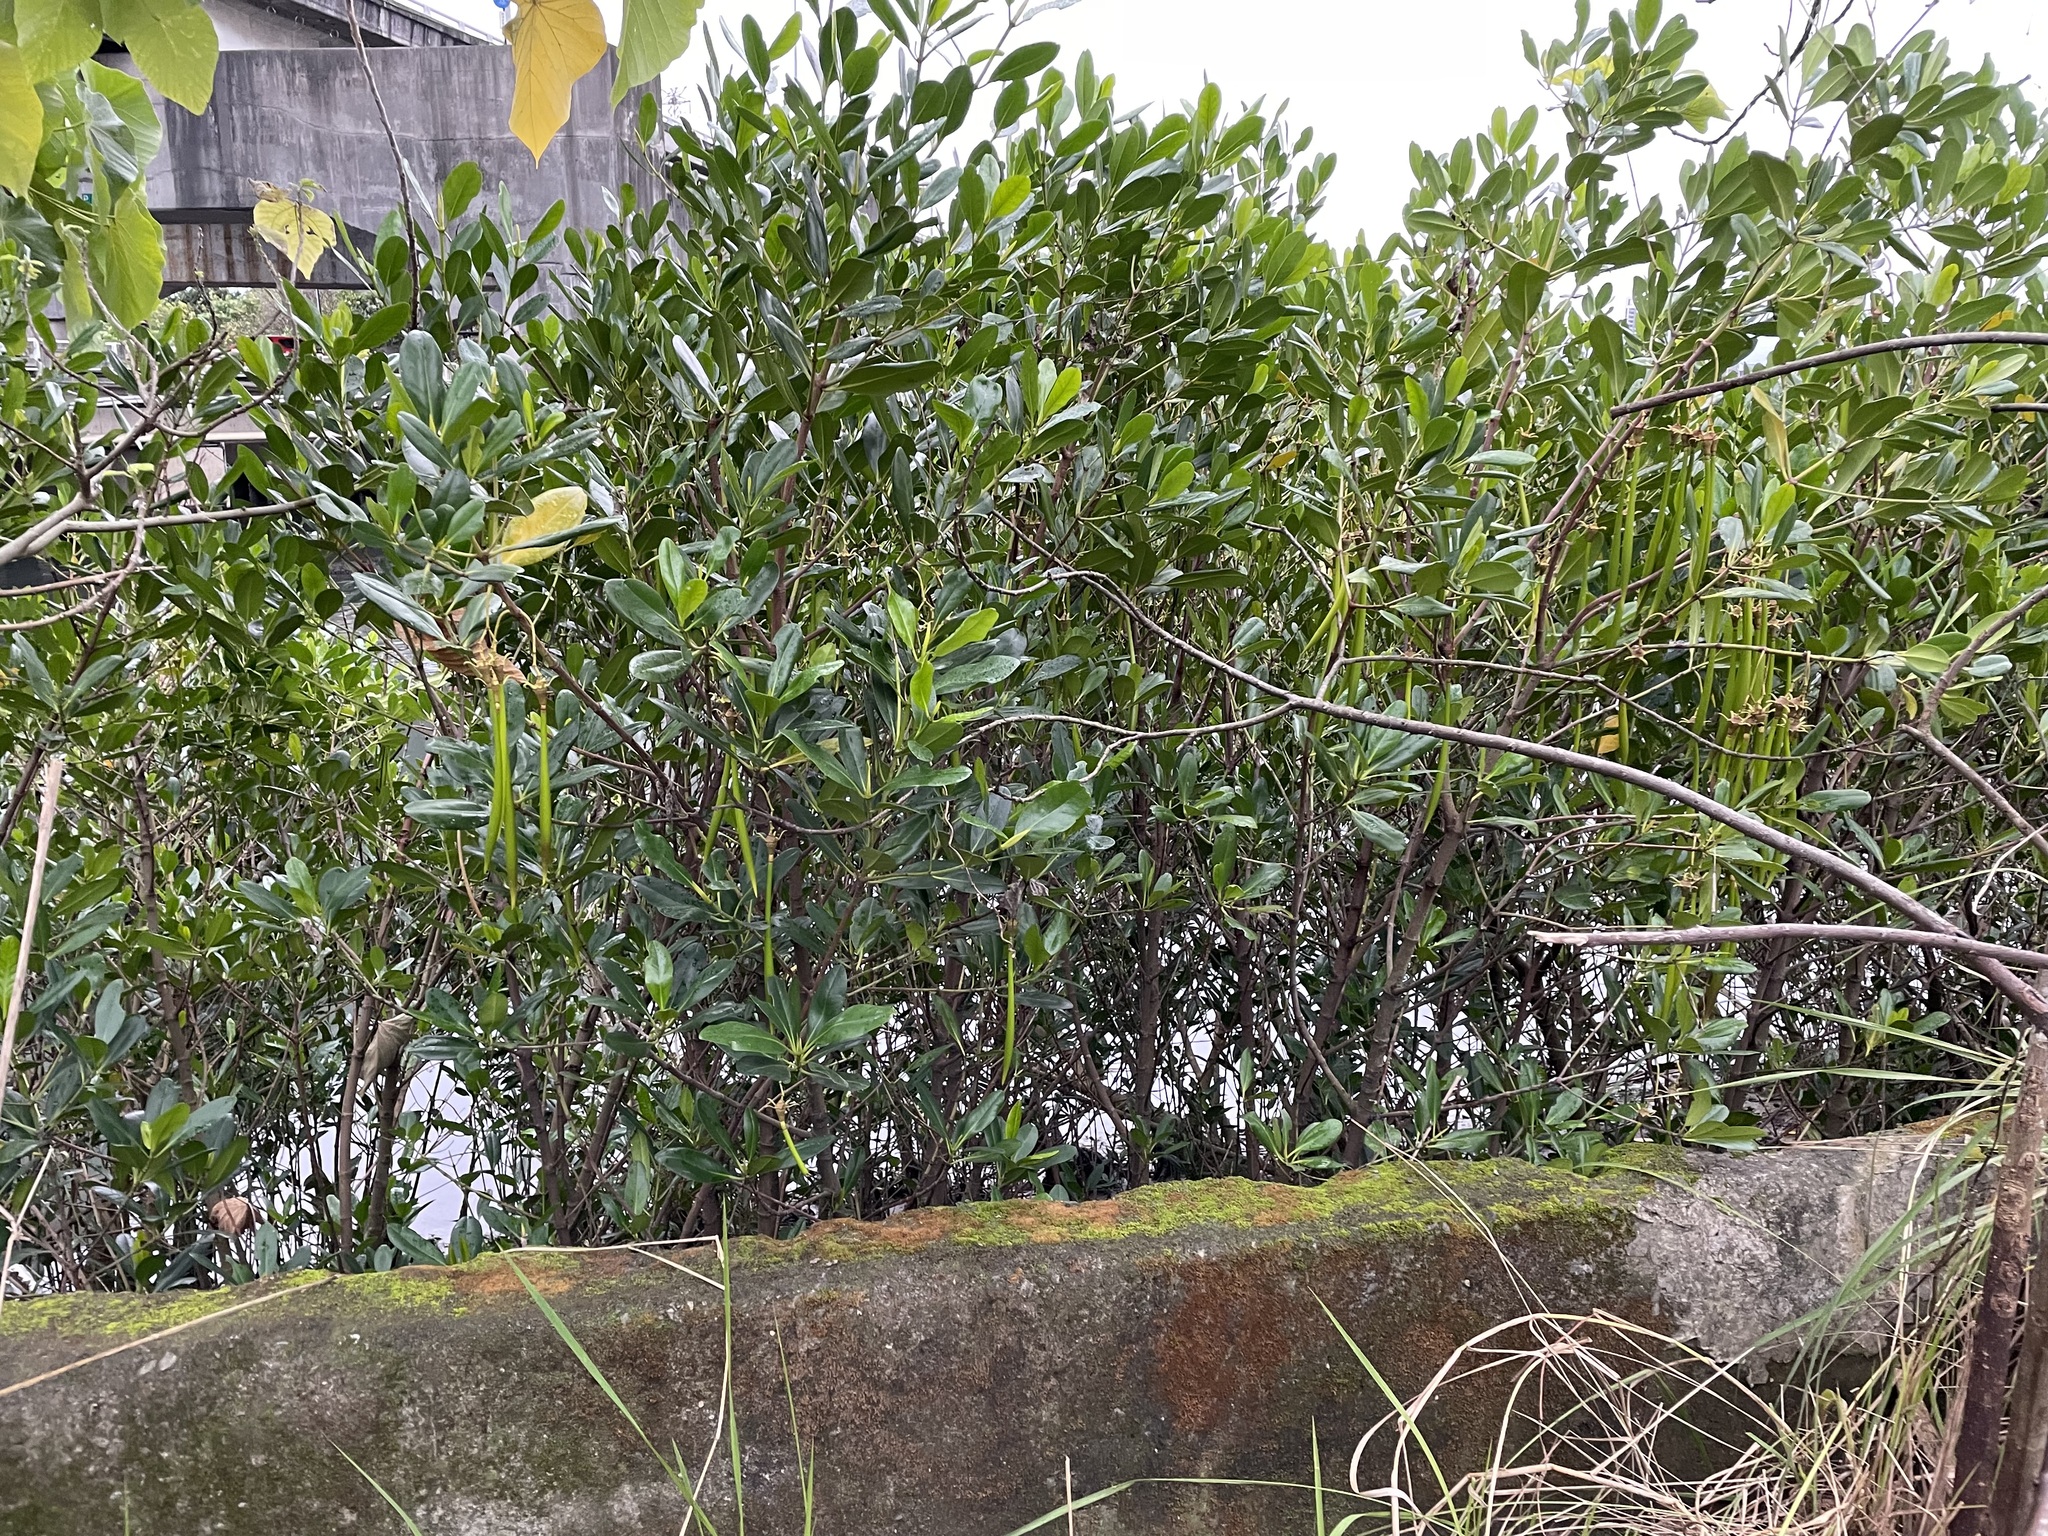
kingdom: Plantae
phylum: Tracheophyta
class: Magnoliopsida
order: Malpighiales
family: Rhizophoraceae
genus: Kandelia
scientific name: Kandelia obovata
